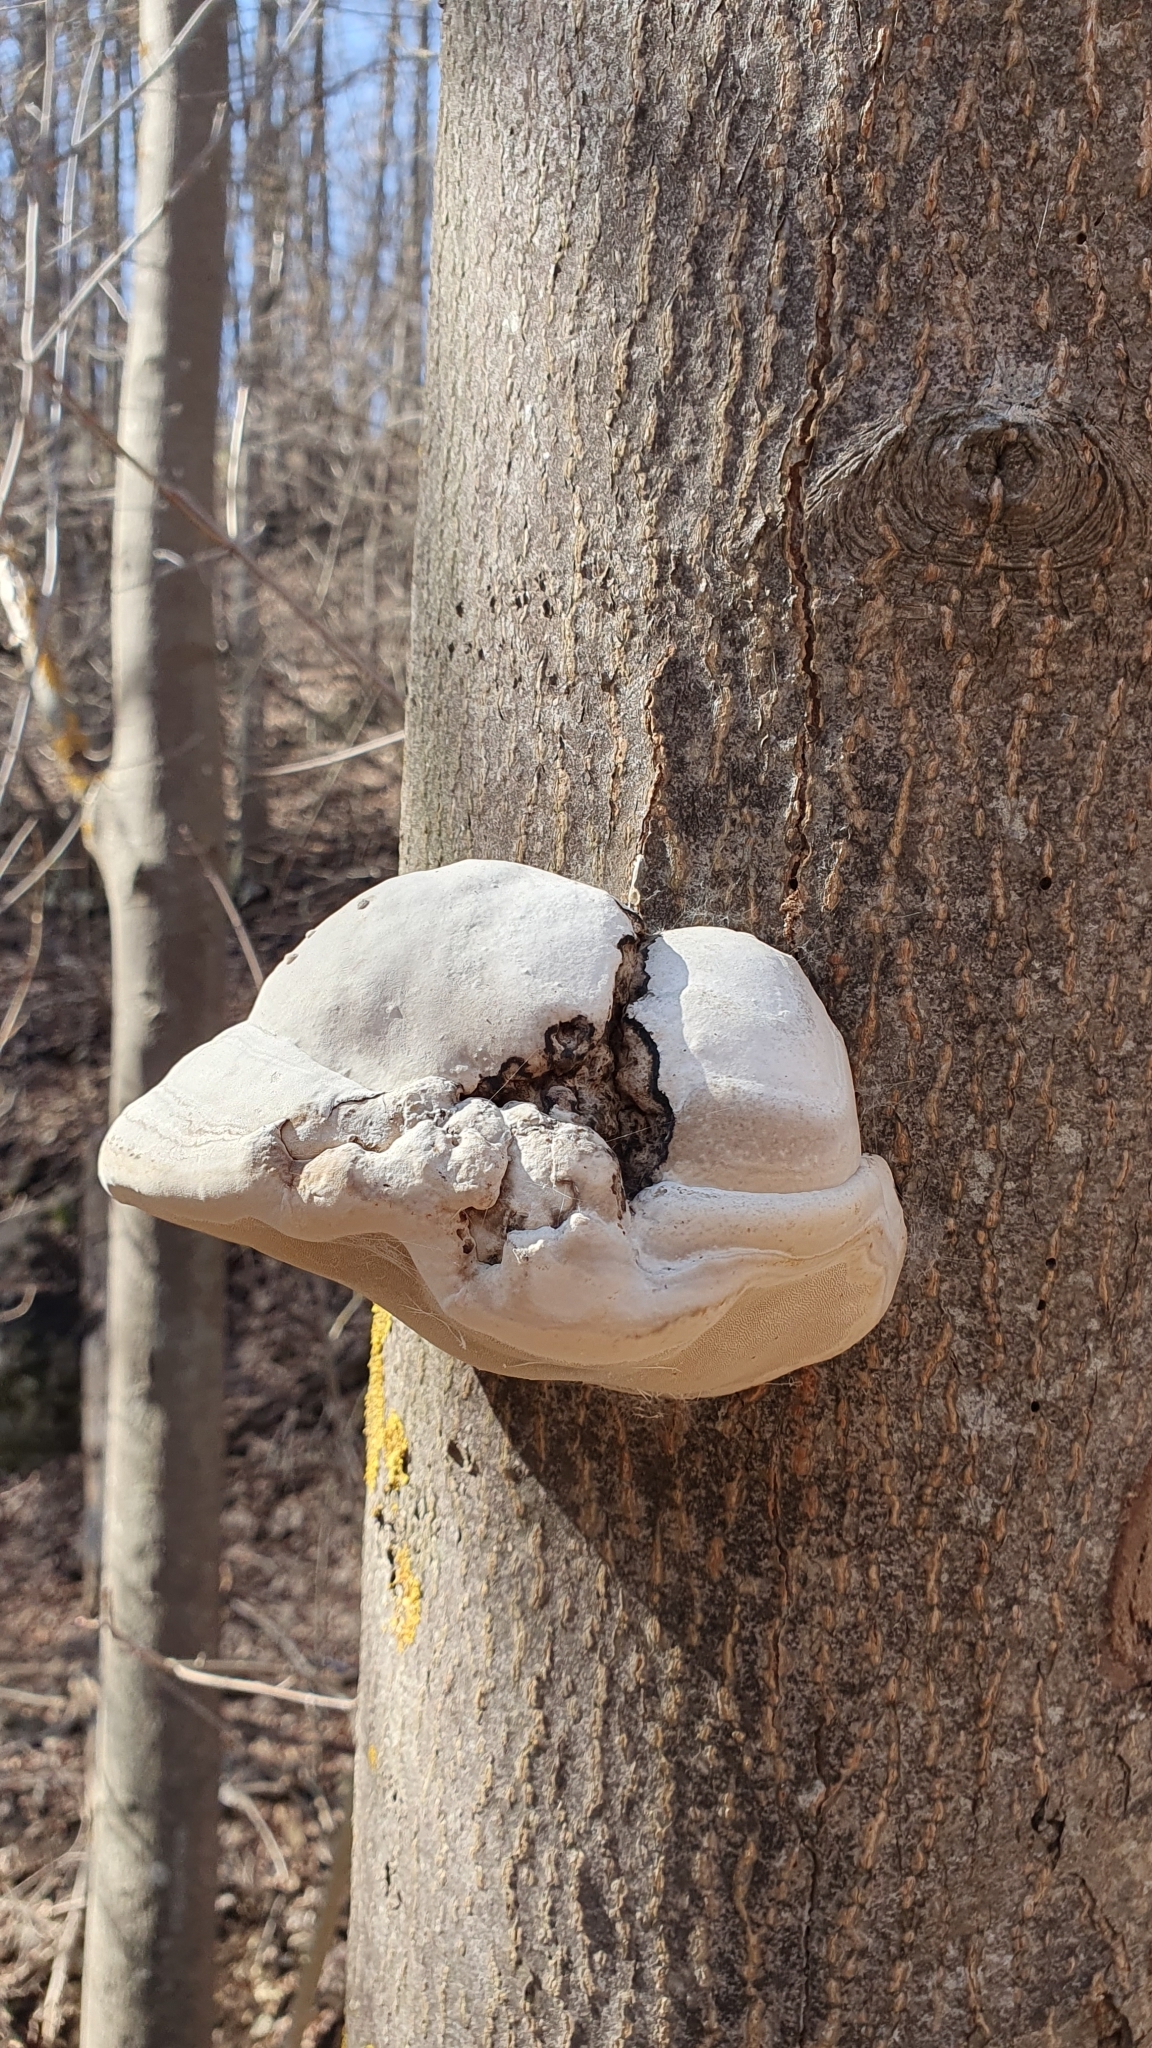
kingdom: Fungi
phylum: Basidiomycota
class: Agaricomycetes
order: Polyporales
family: Polyporaceae
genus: Fomes
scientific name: Fomes fomentarius
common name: Hoof fungus
